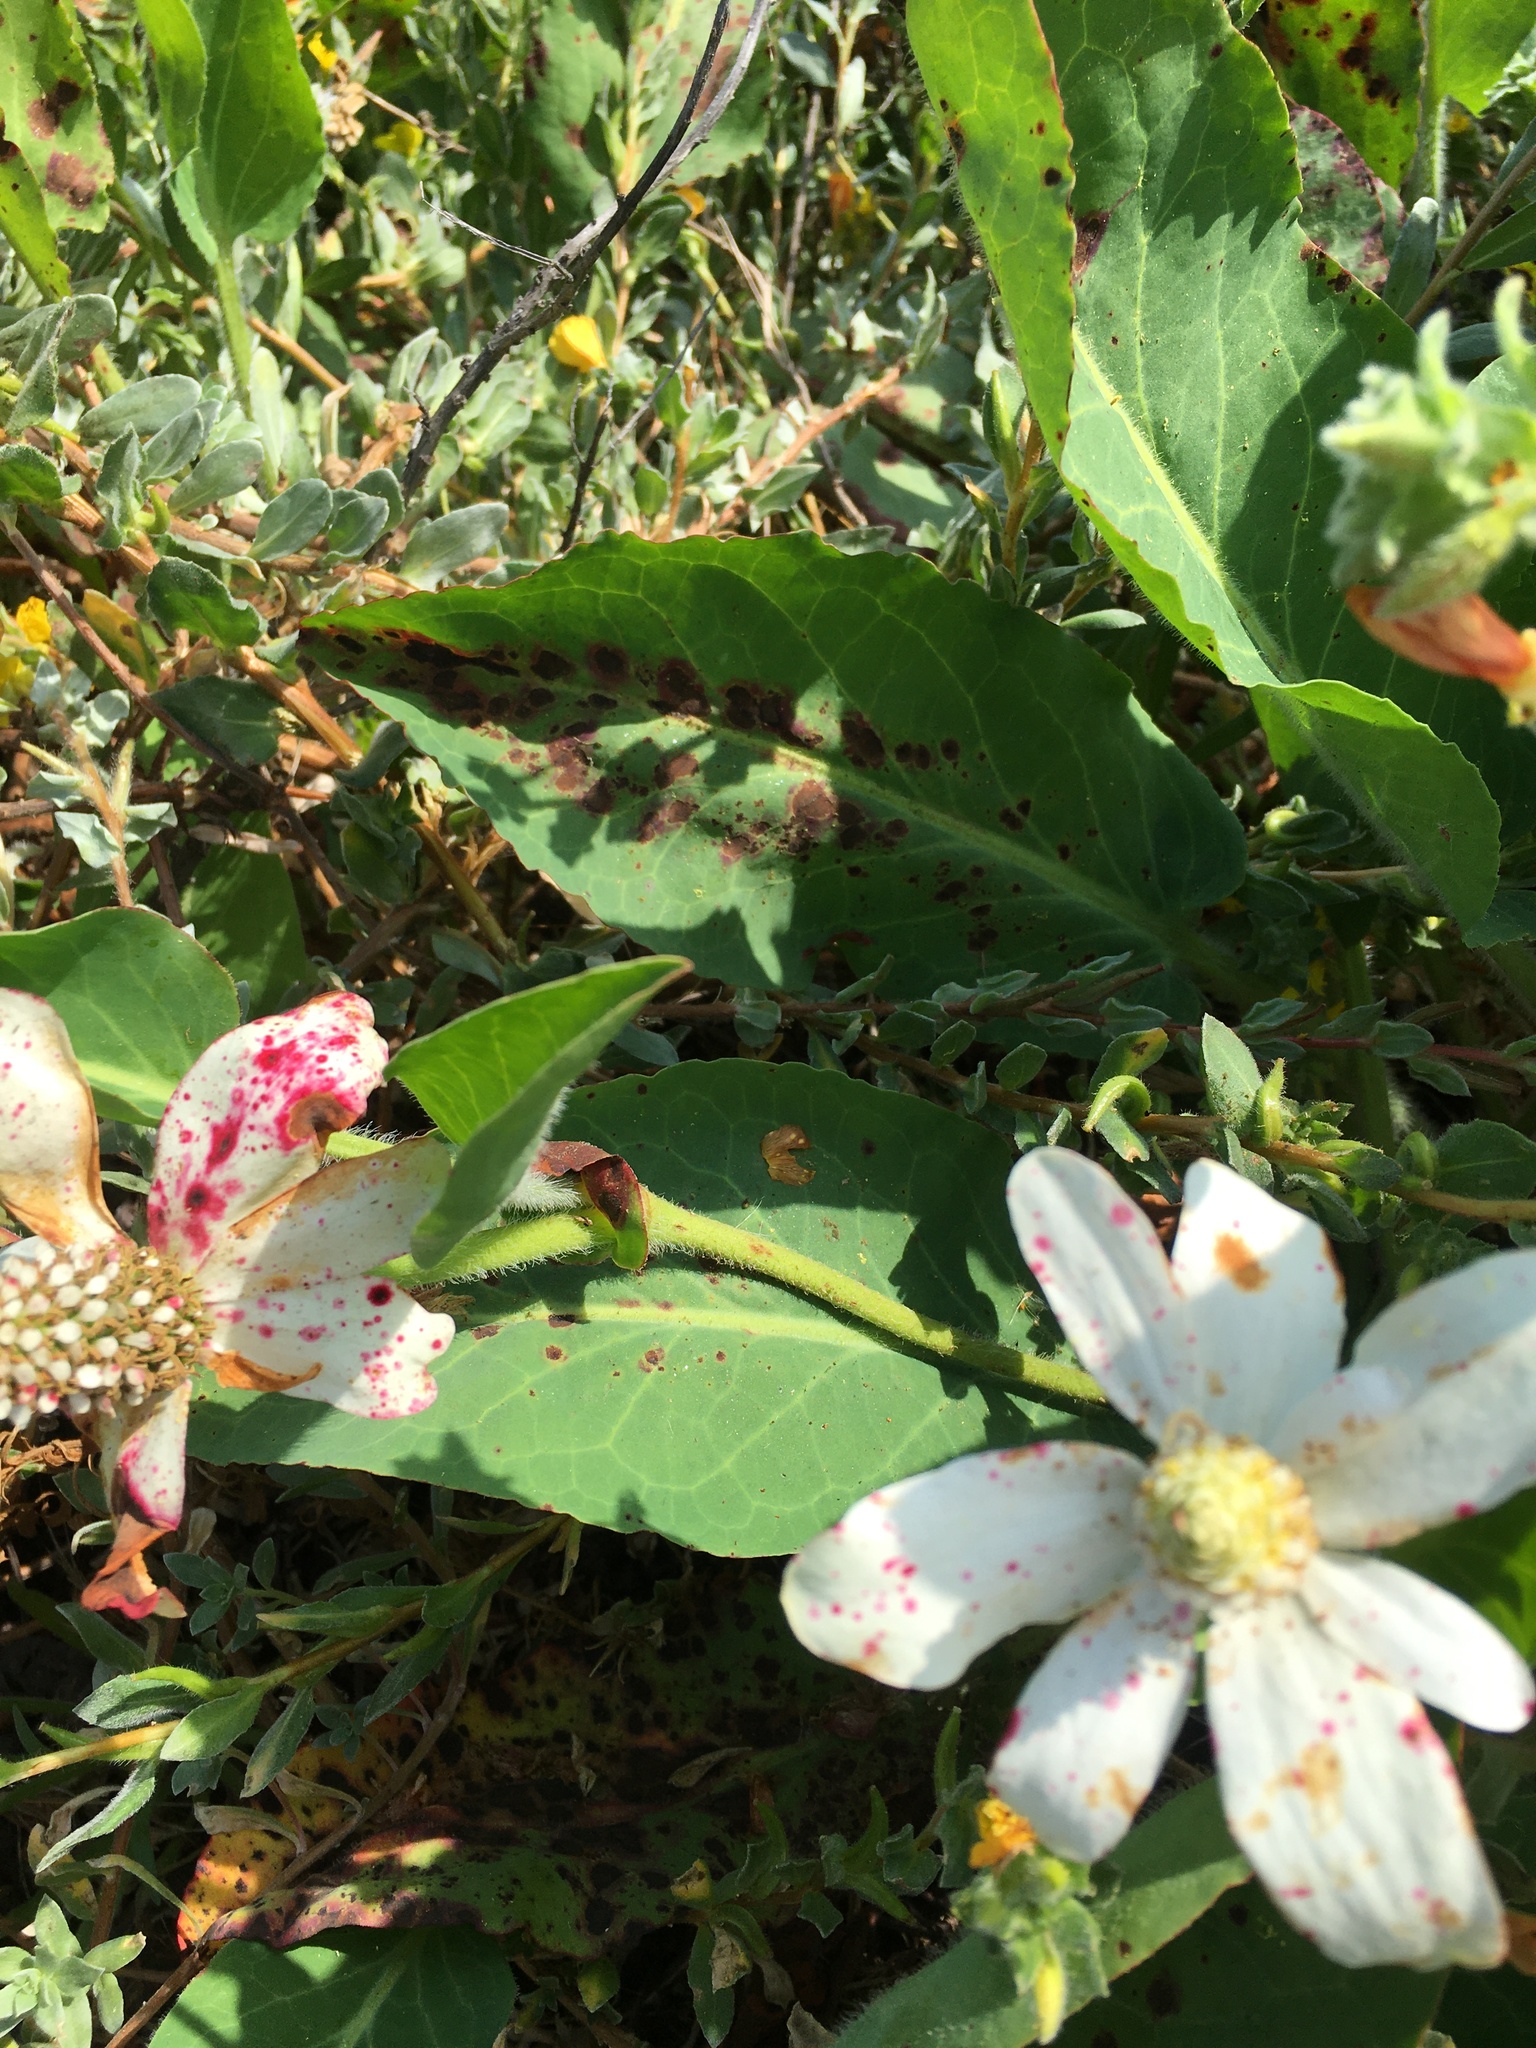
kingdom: Plantae
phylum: Tracheophyta
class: Magnoliopsida
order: Piperales
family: Saururaceae
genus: Anemopsis
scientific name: Anemopsis californica
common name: Apache-beads
